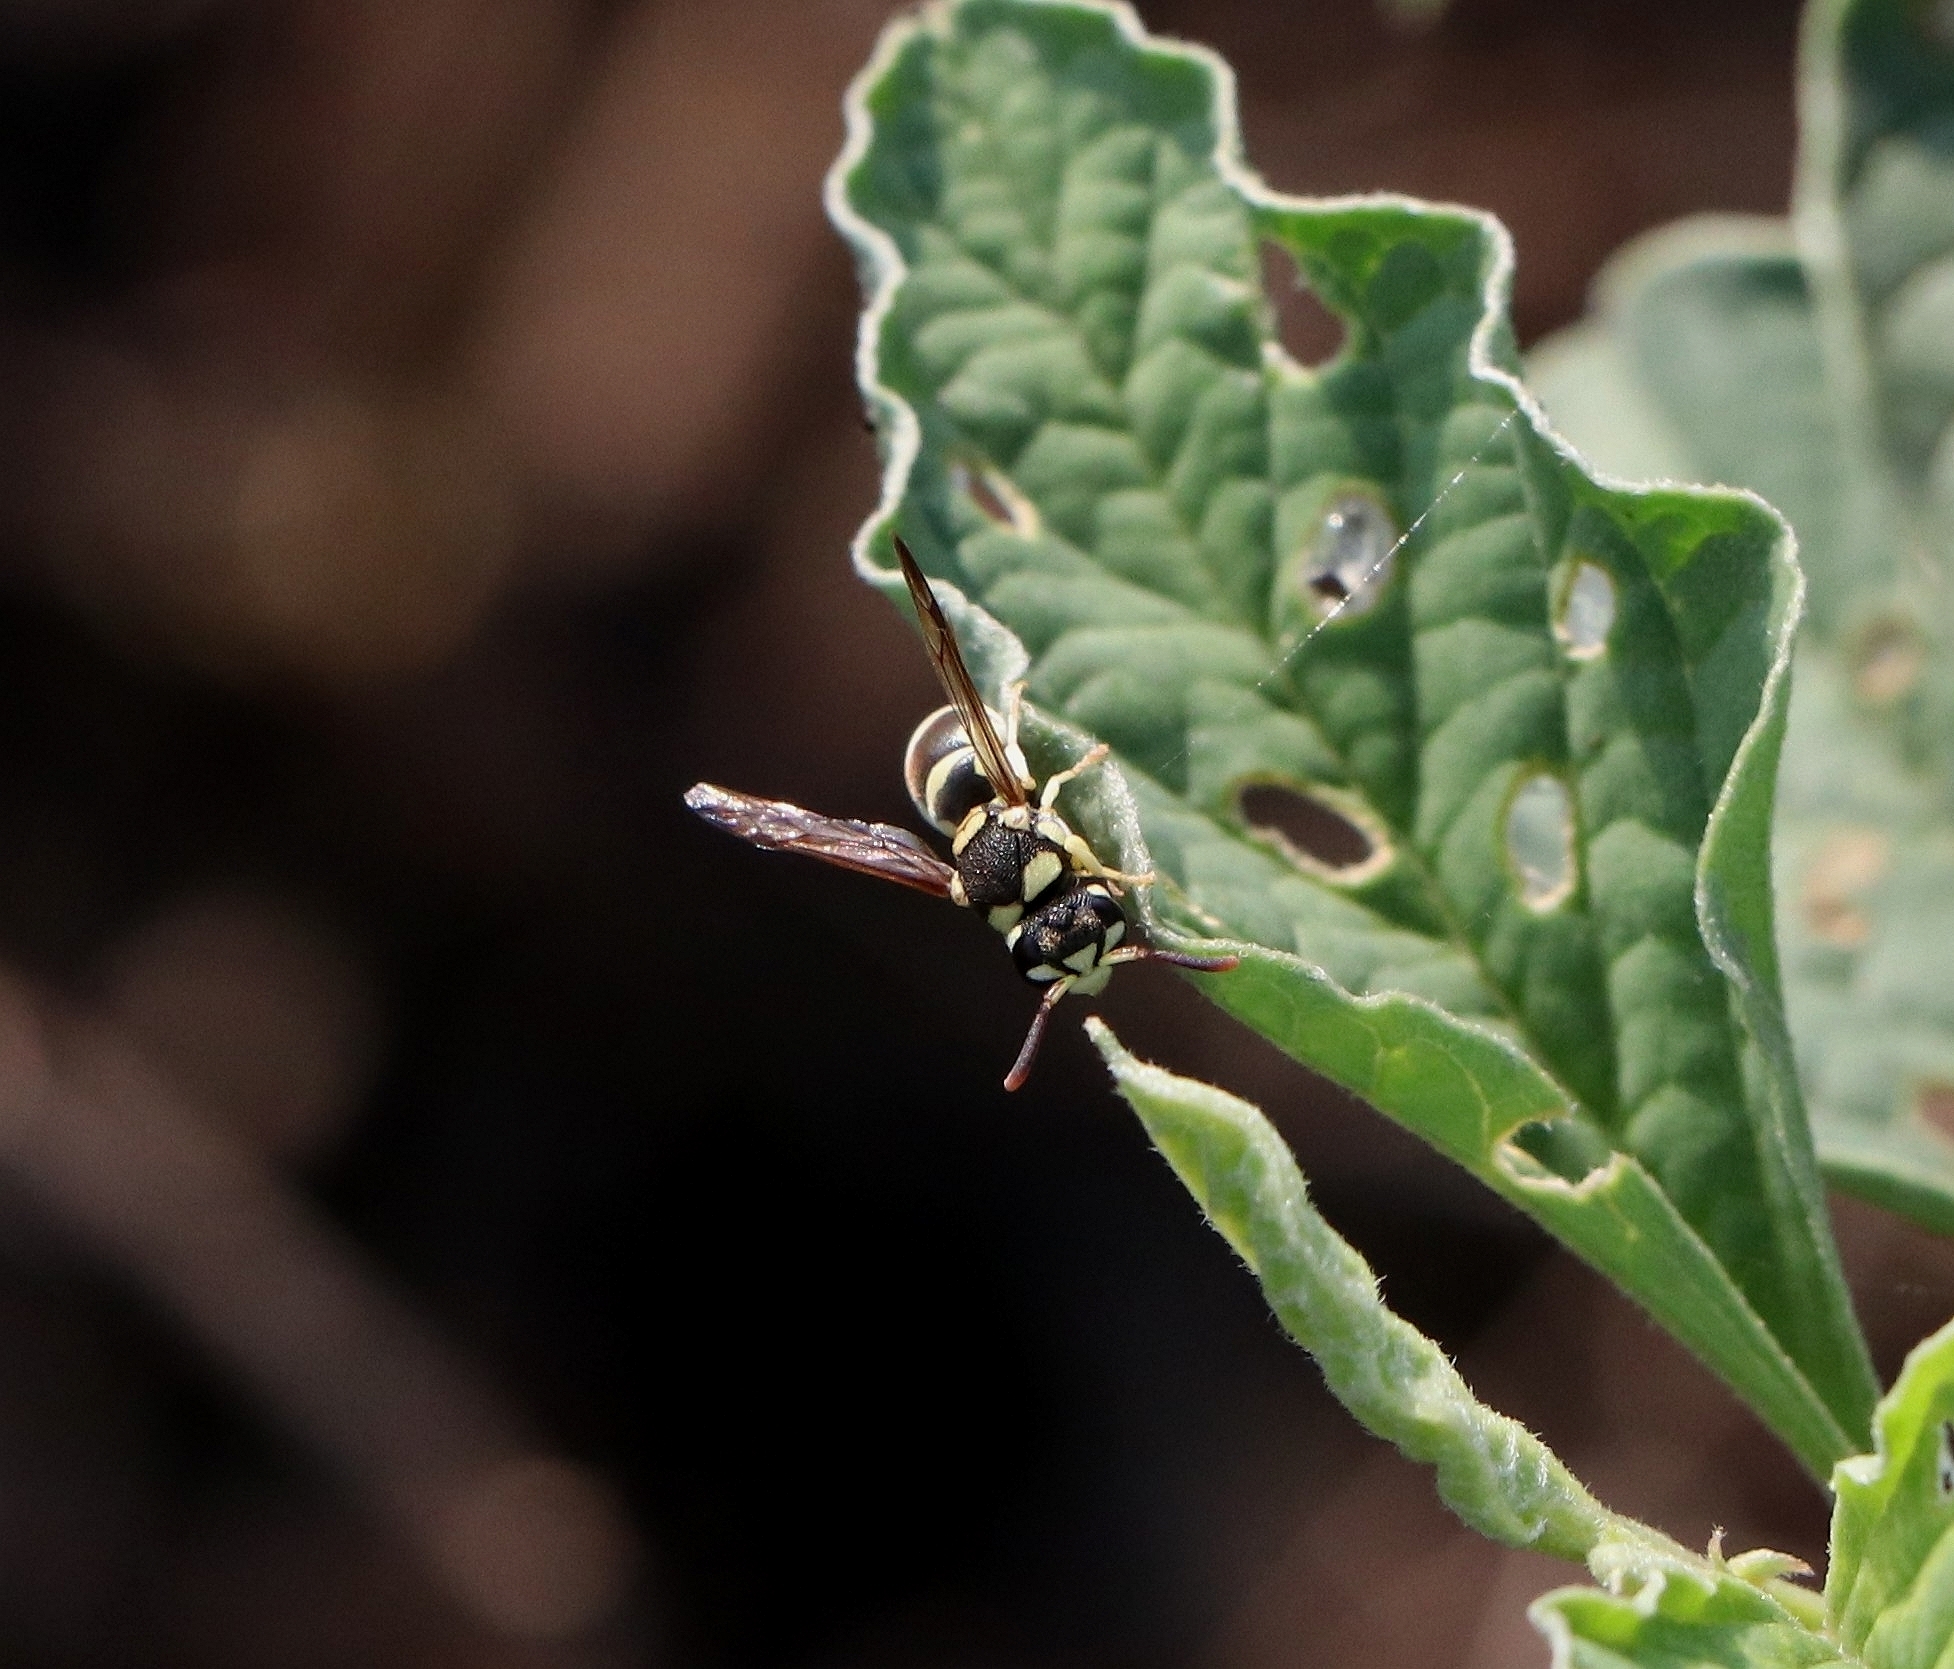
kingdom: Animalia
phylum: Arthropoda
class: Insecta
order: Hymenoptera
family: Eumenidae
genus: Antepipona
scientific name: Antepipona ovalis
